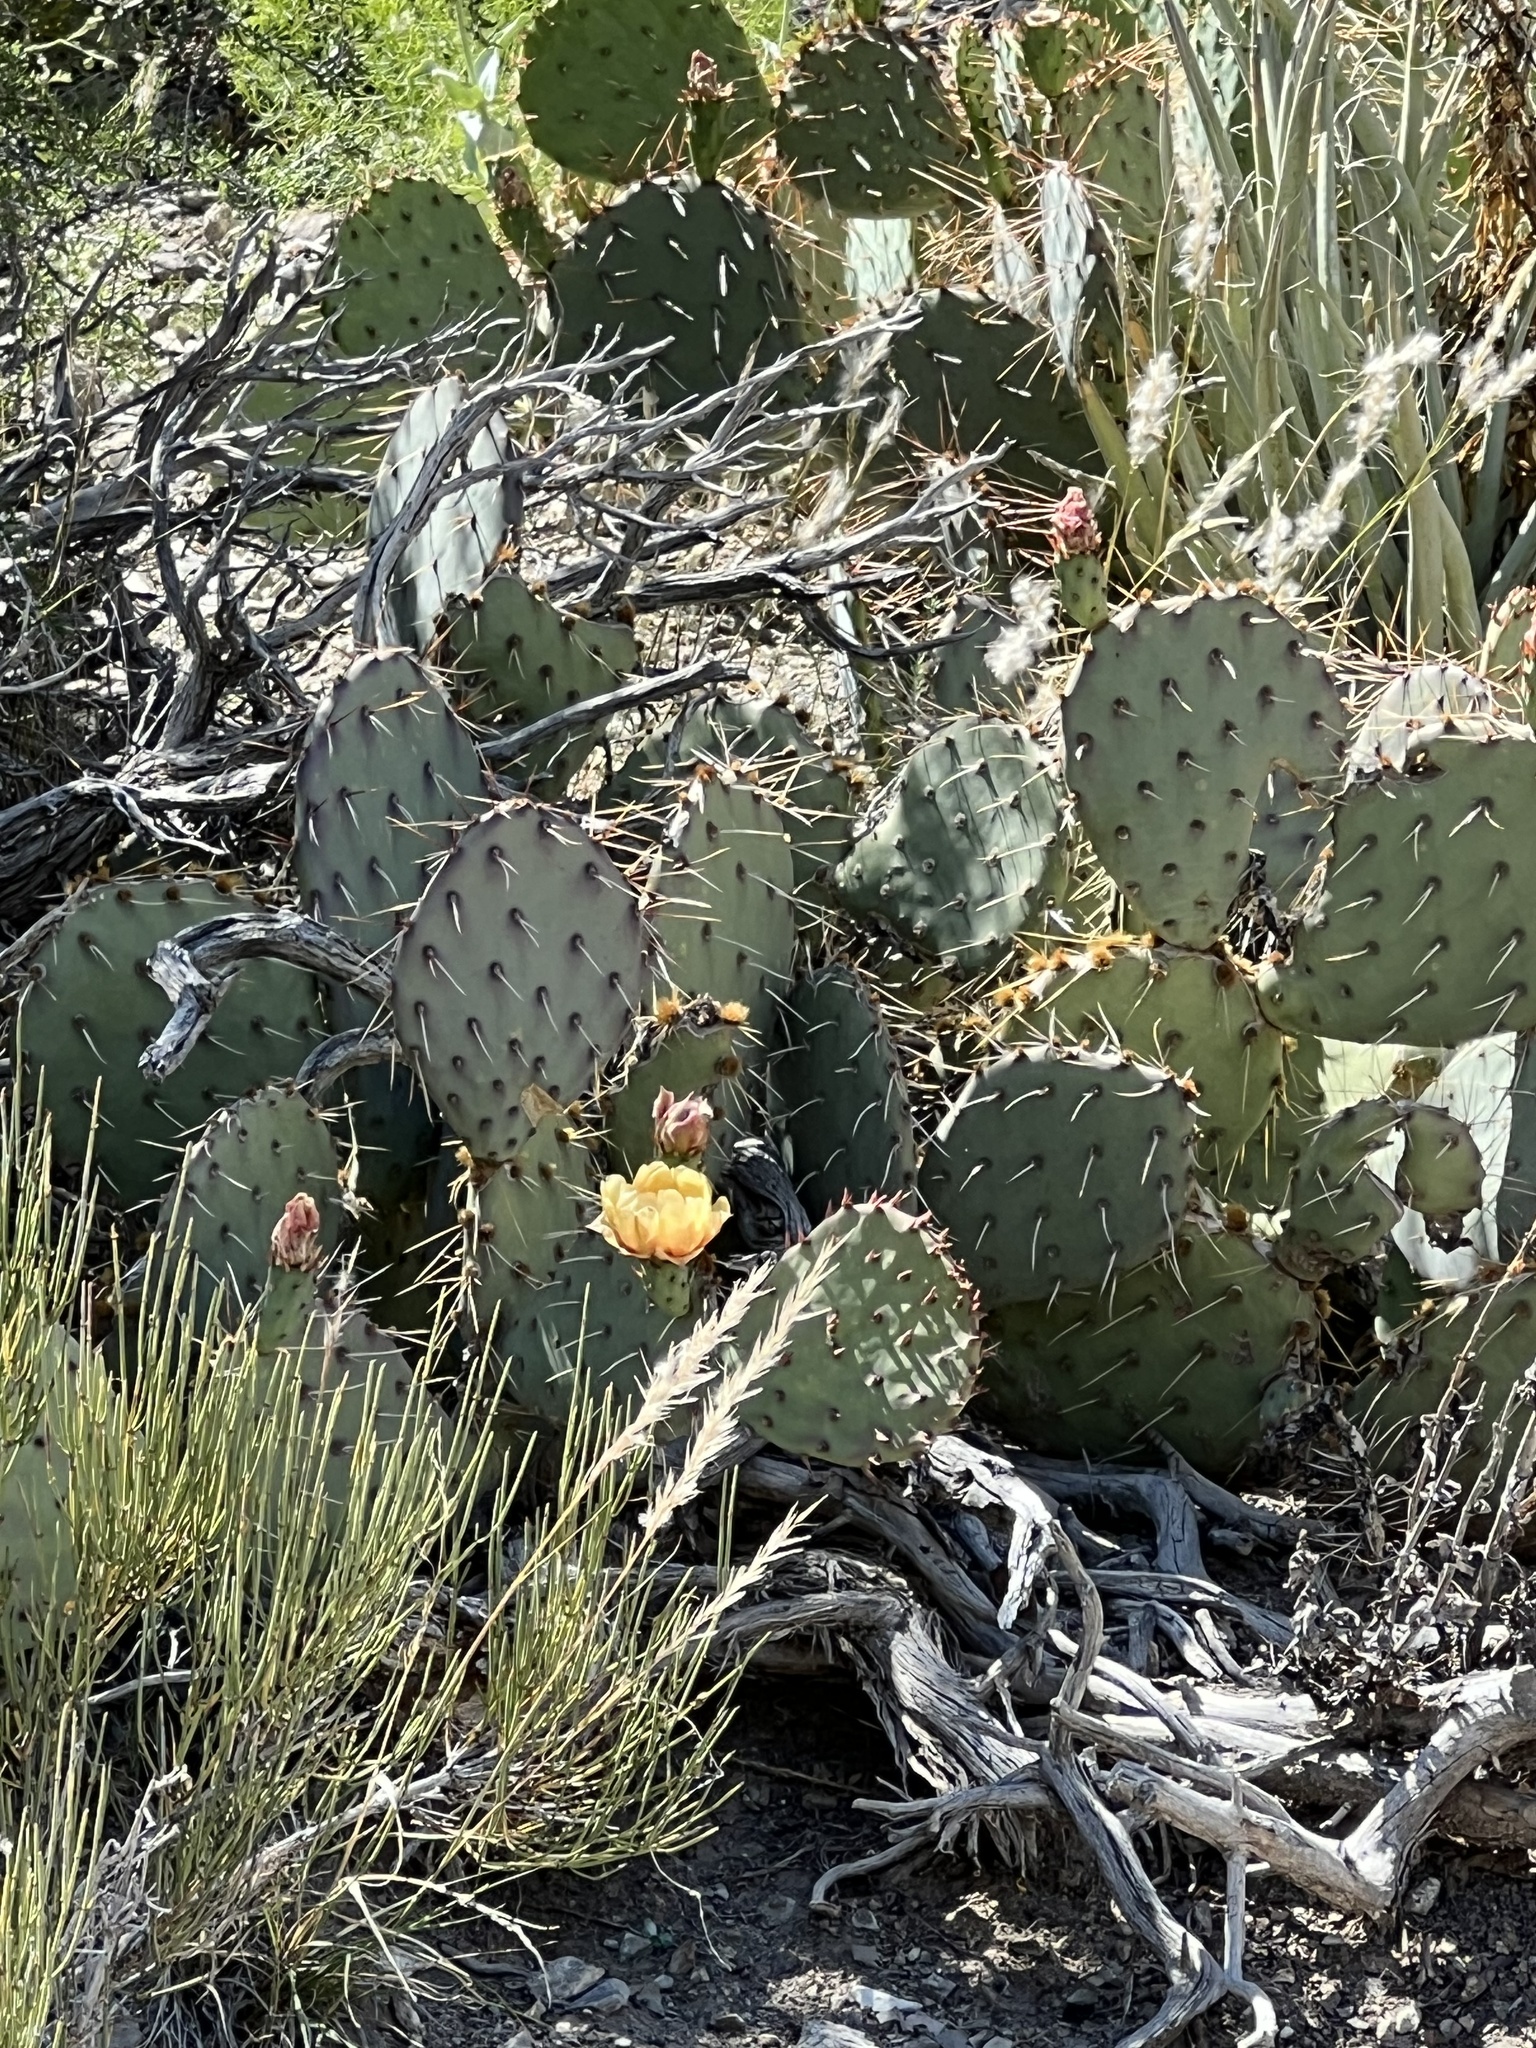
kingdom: Plantae
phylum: Tracheophyta
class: Magnoliopsida
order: Caryophyllales
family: Cactaceae
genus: Opuntia
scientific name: Opuntia phaeacantha
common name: New mexico prickly-pear
